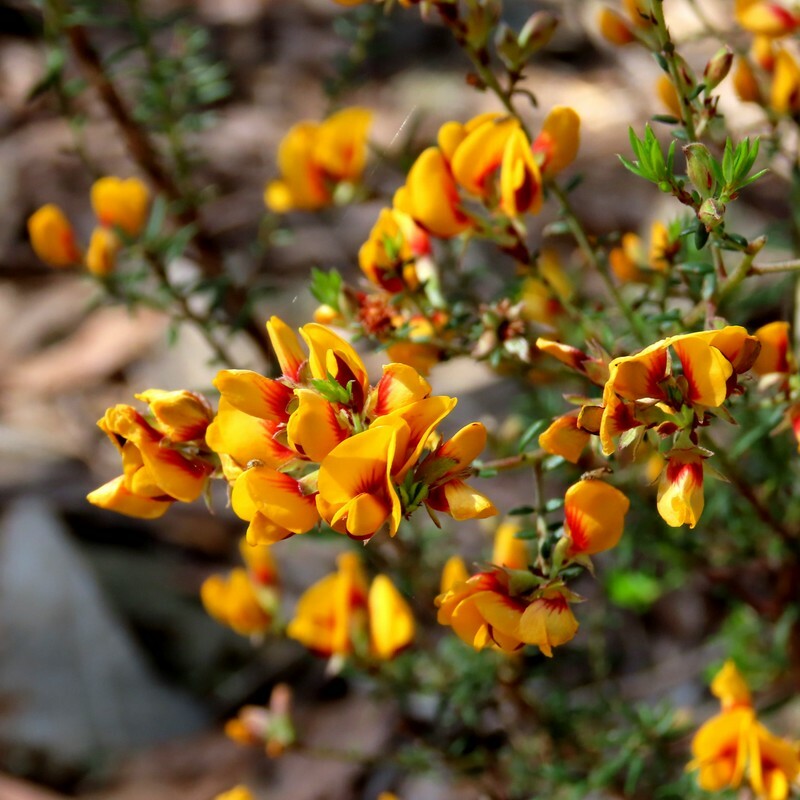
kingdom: Plantae
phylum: Tracheophyta
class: Magnoliopsida
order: Fabales
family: Fabaceae
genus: Pultenaea
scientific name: Pultenaea gunnii
